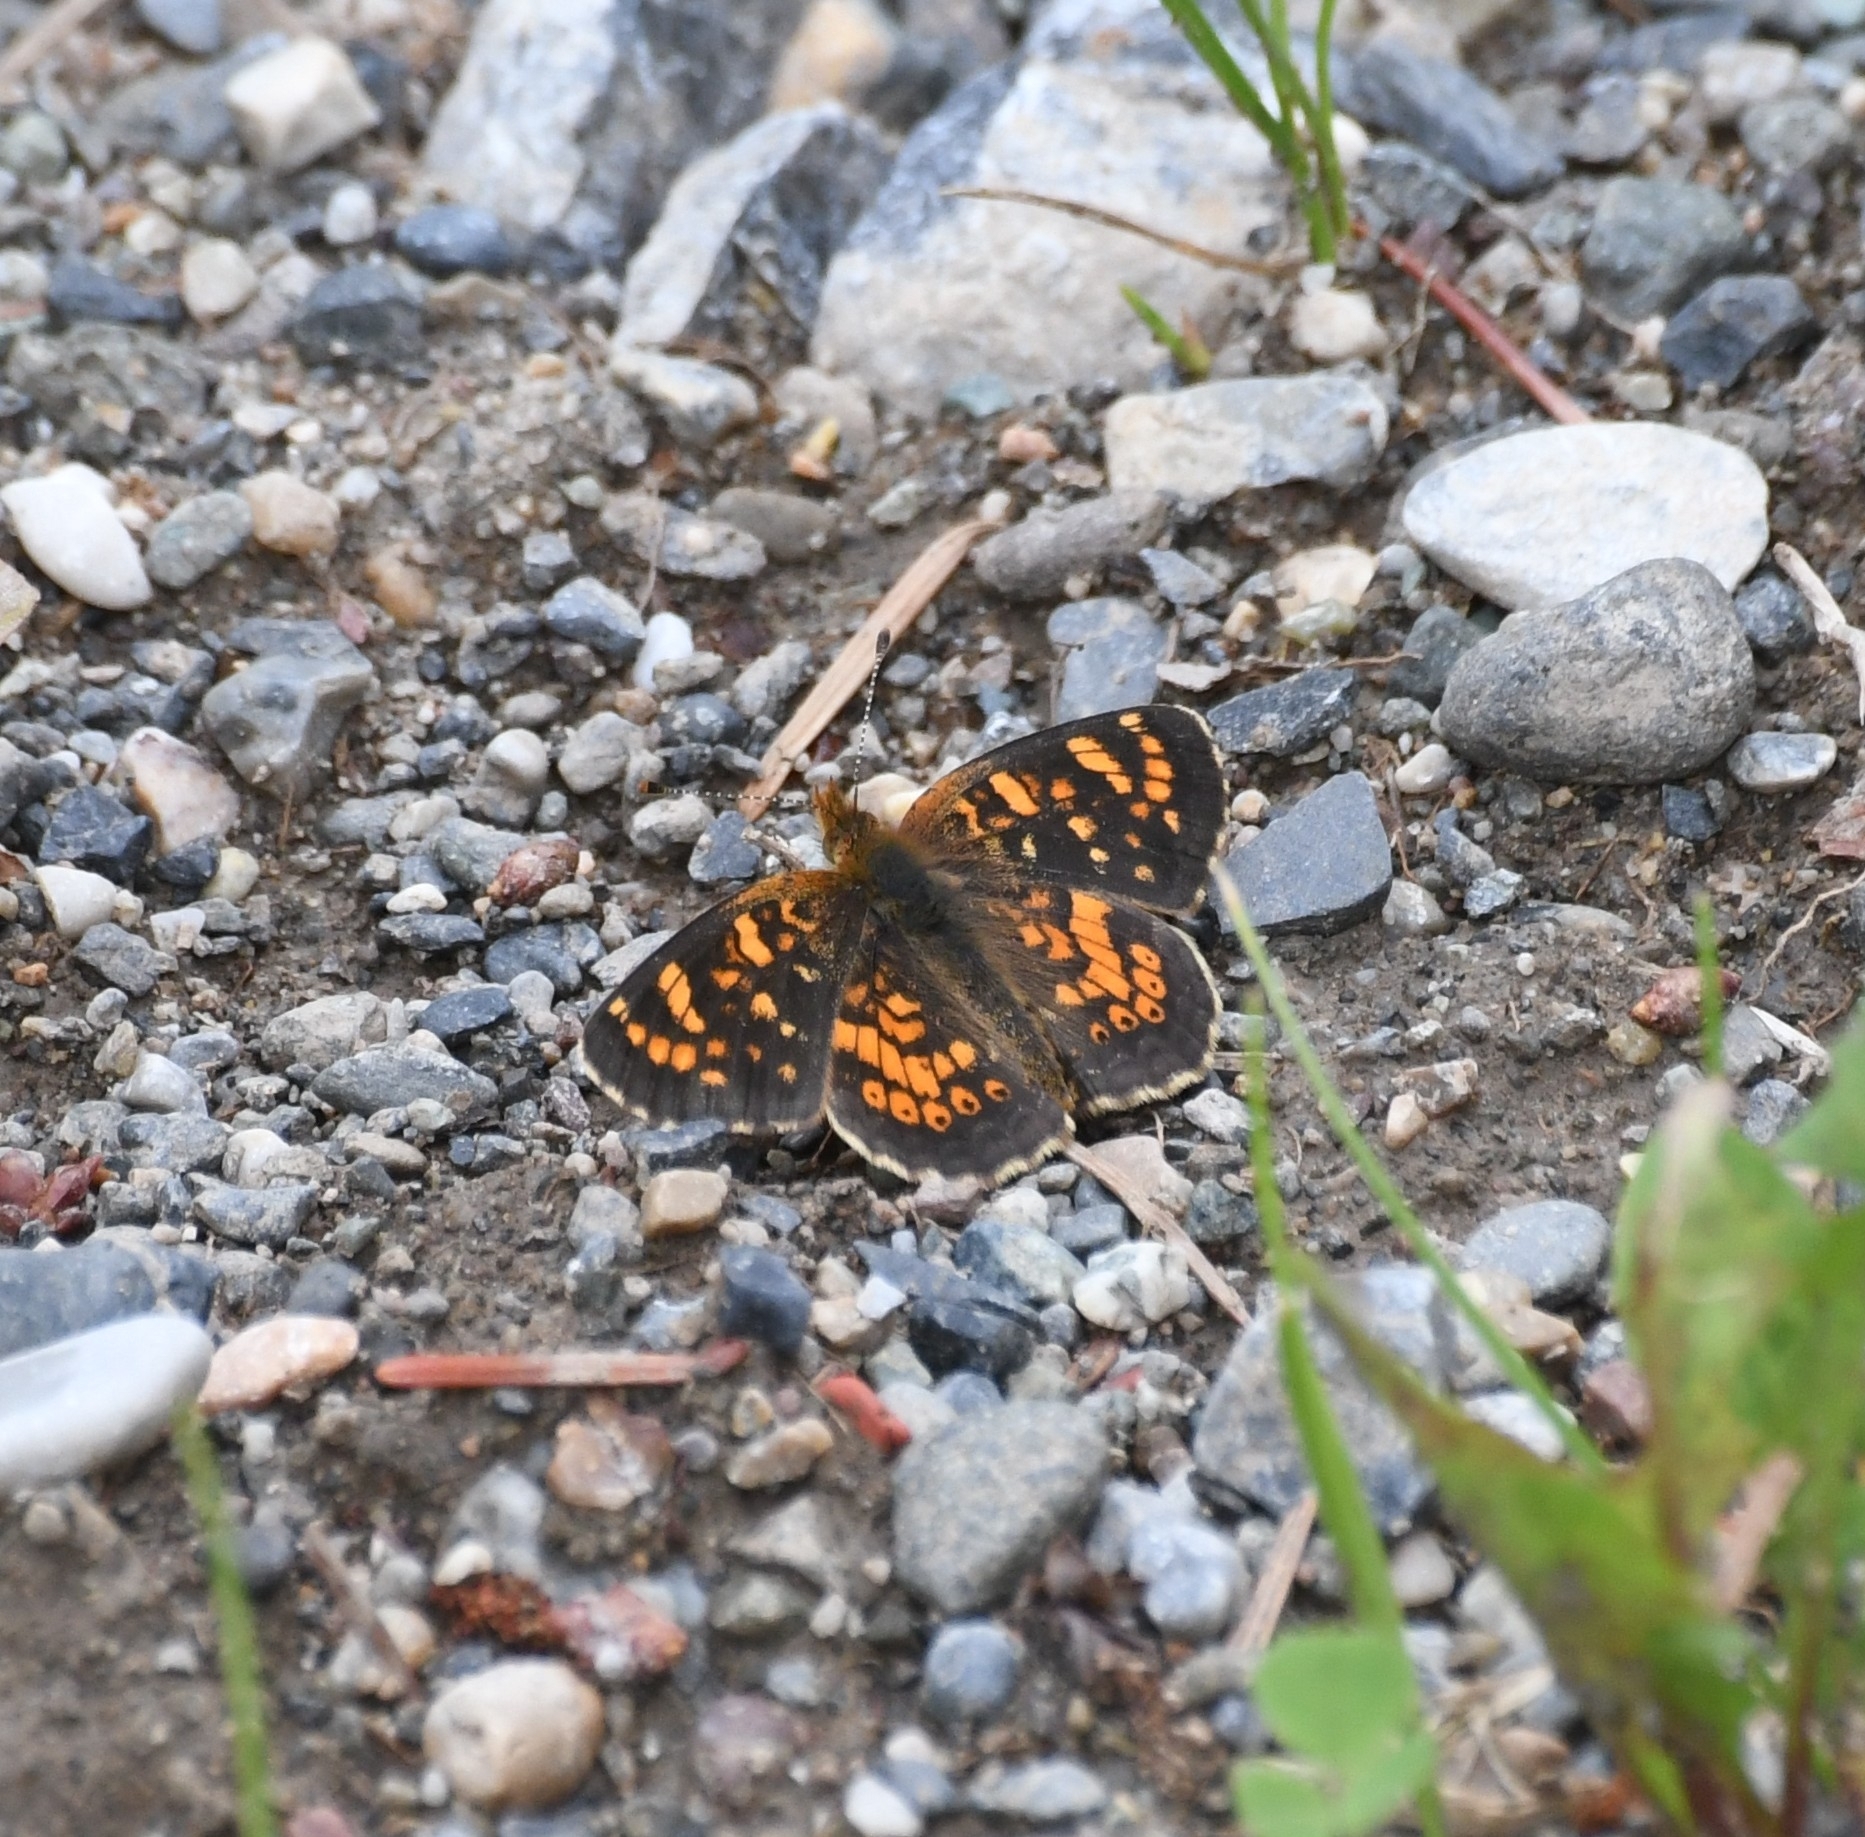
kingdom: Animalia
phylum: Arthropoda
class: Insecta
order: Lepidoptera
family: Nymphalidae
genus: Phyciodes
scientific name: Phyciodes tharos
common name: Pearl crescent
